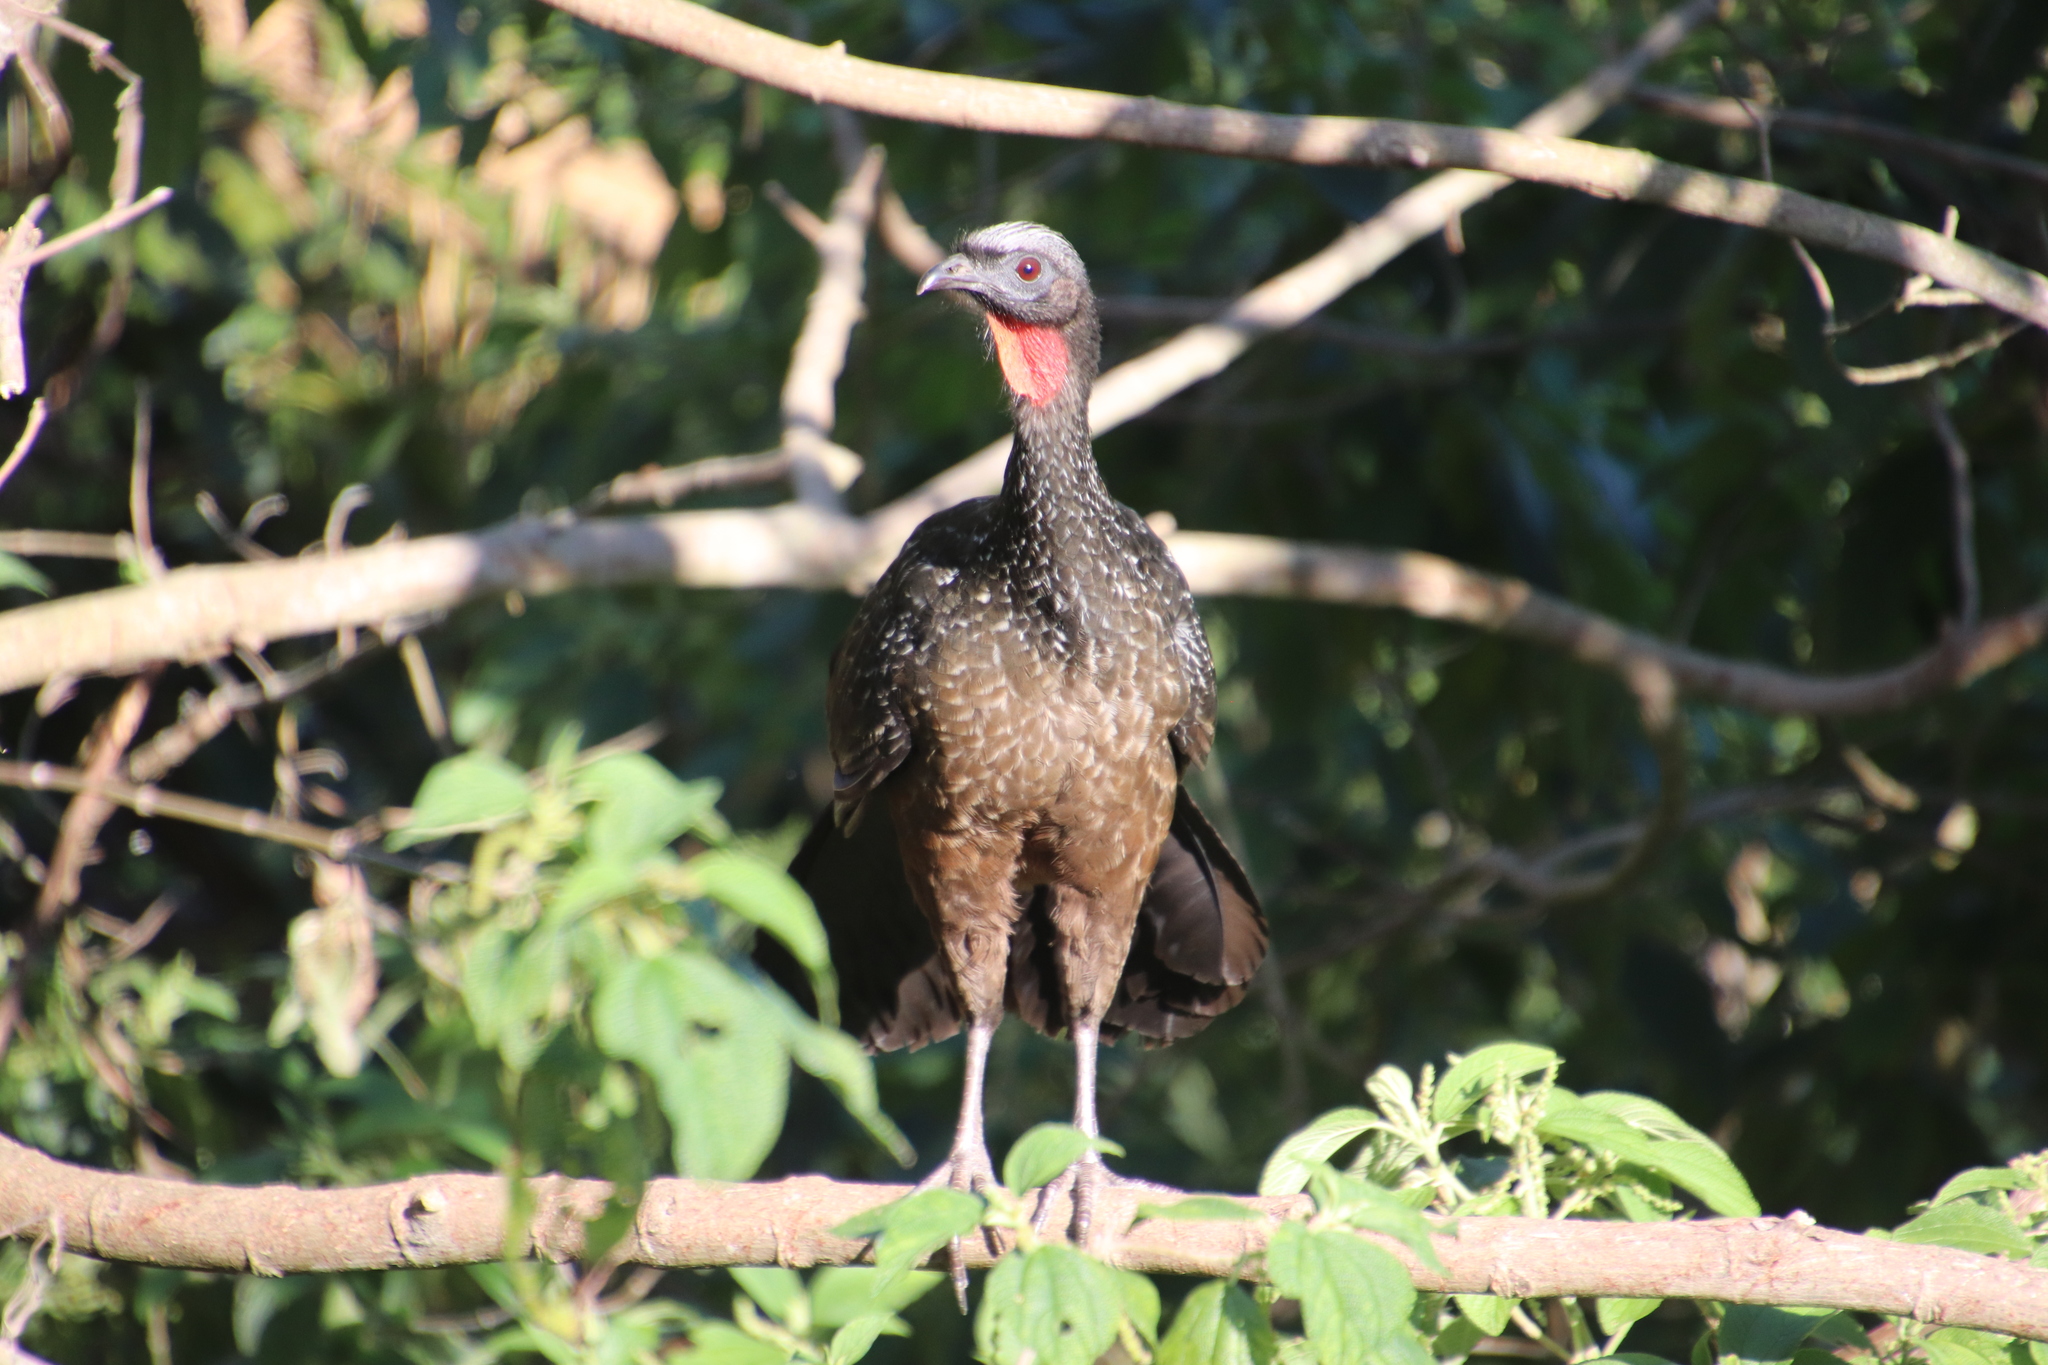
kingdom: Animalia
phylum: Chordata
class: Aves
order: Galliformes
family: Cracidae
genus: Penelope
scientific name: Penelope obscura
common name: Dusky-legged guan
